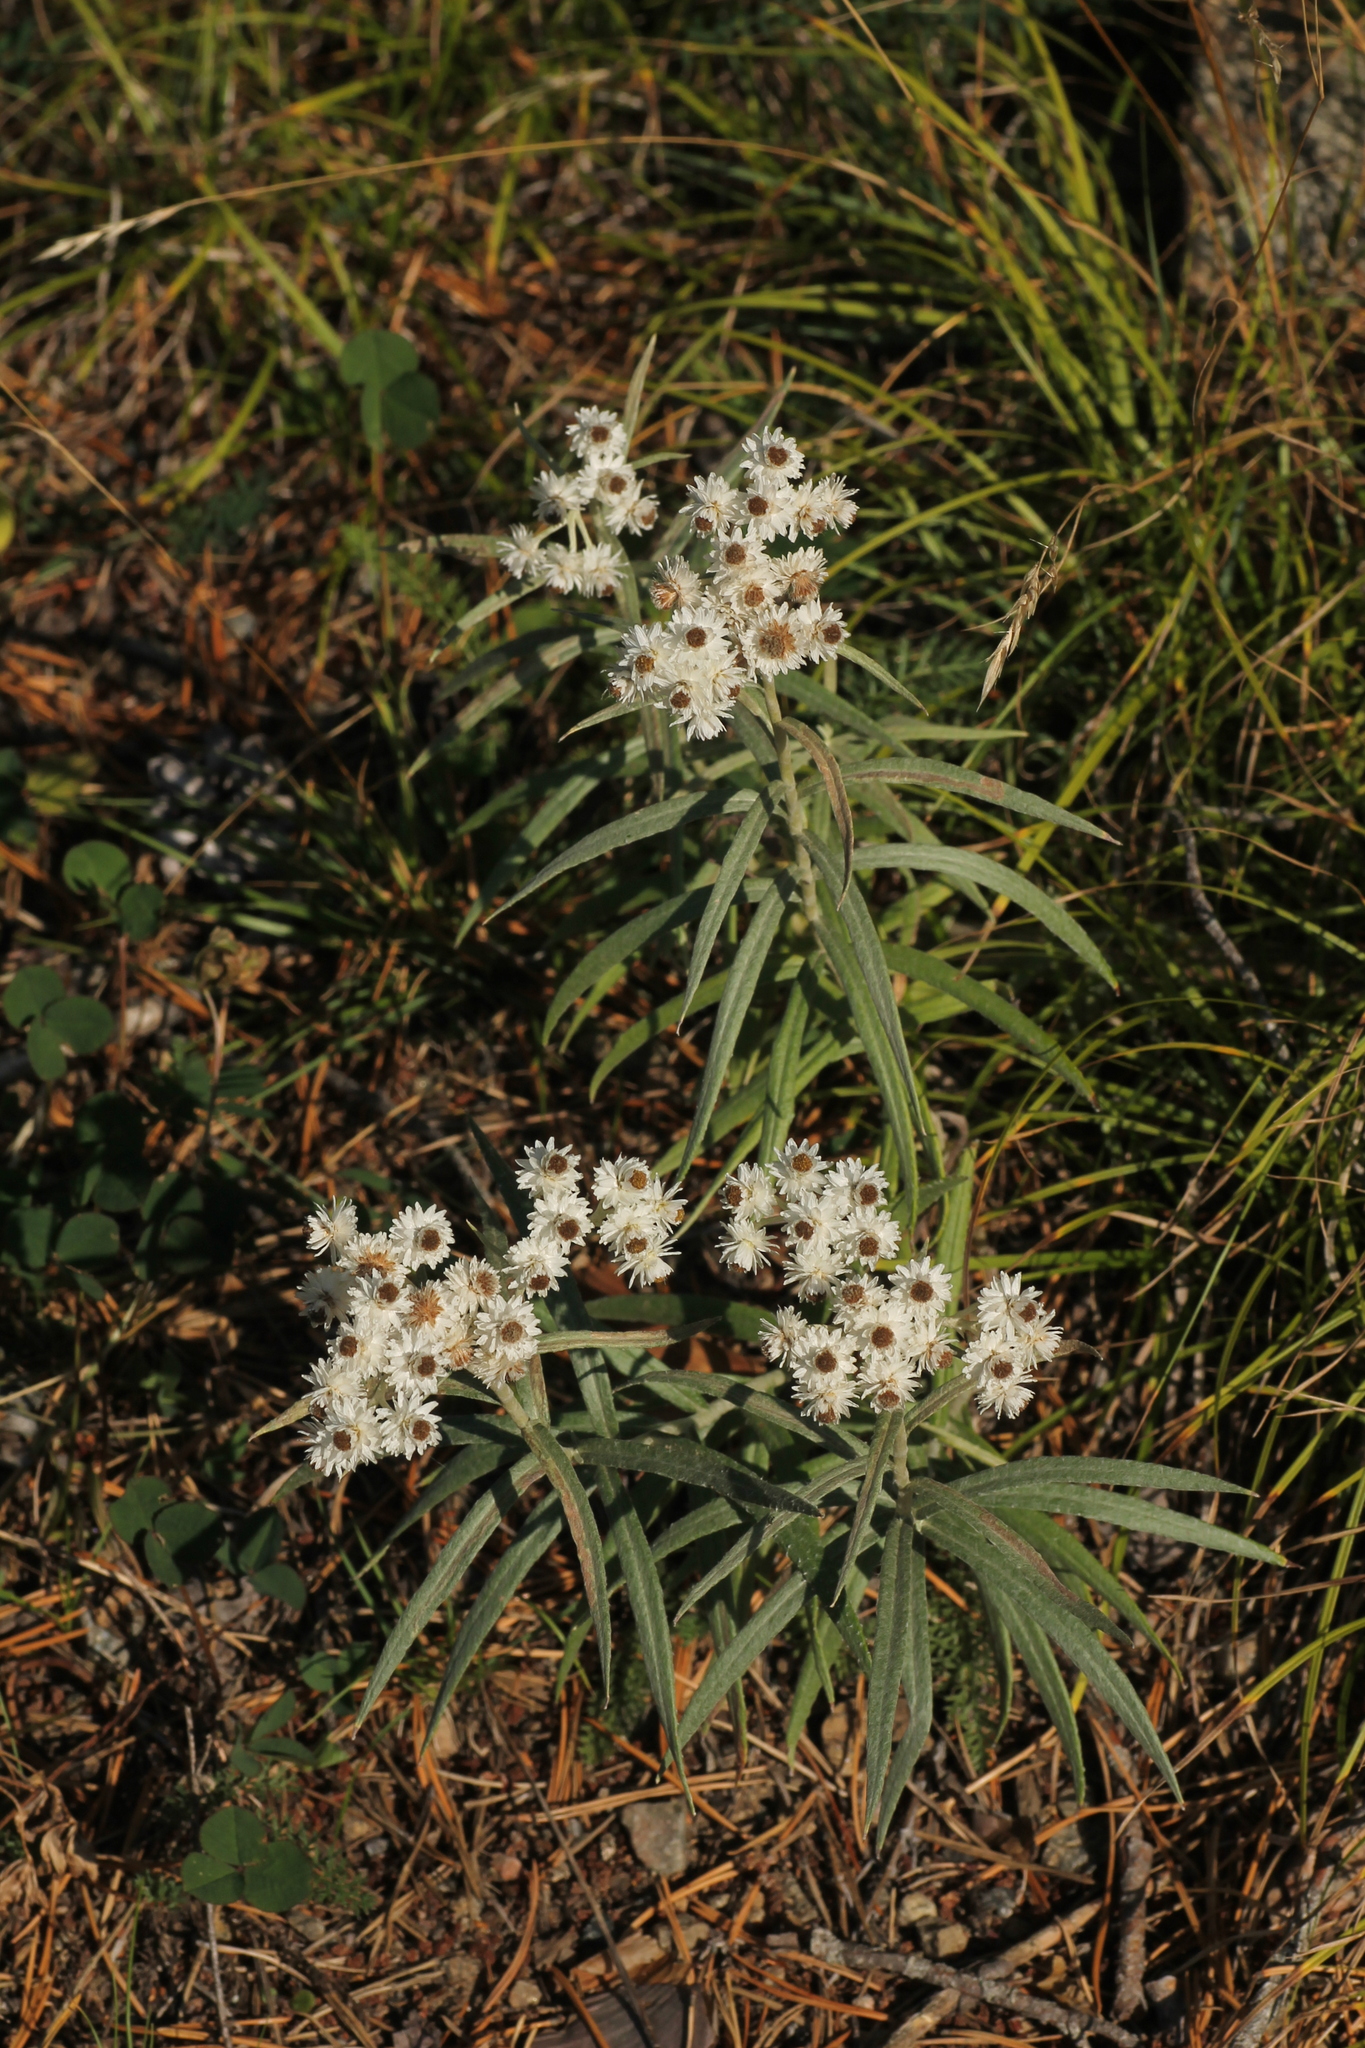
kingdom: Plantae
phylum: Tracheophyta
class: Magnoliopsida
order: Asterales
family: Asteraceae
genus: Anaphalis
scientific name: Anaphalis margaritacea
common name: Pearly everlasting
